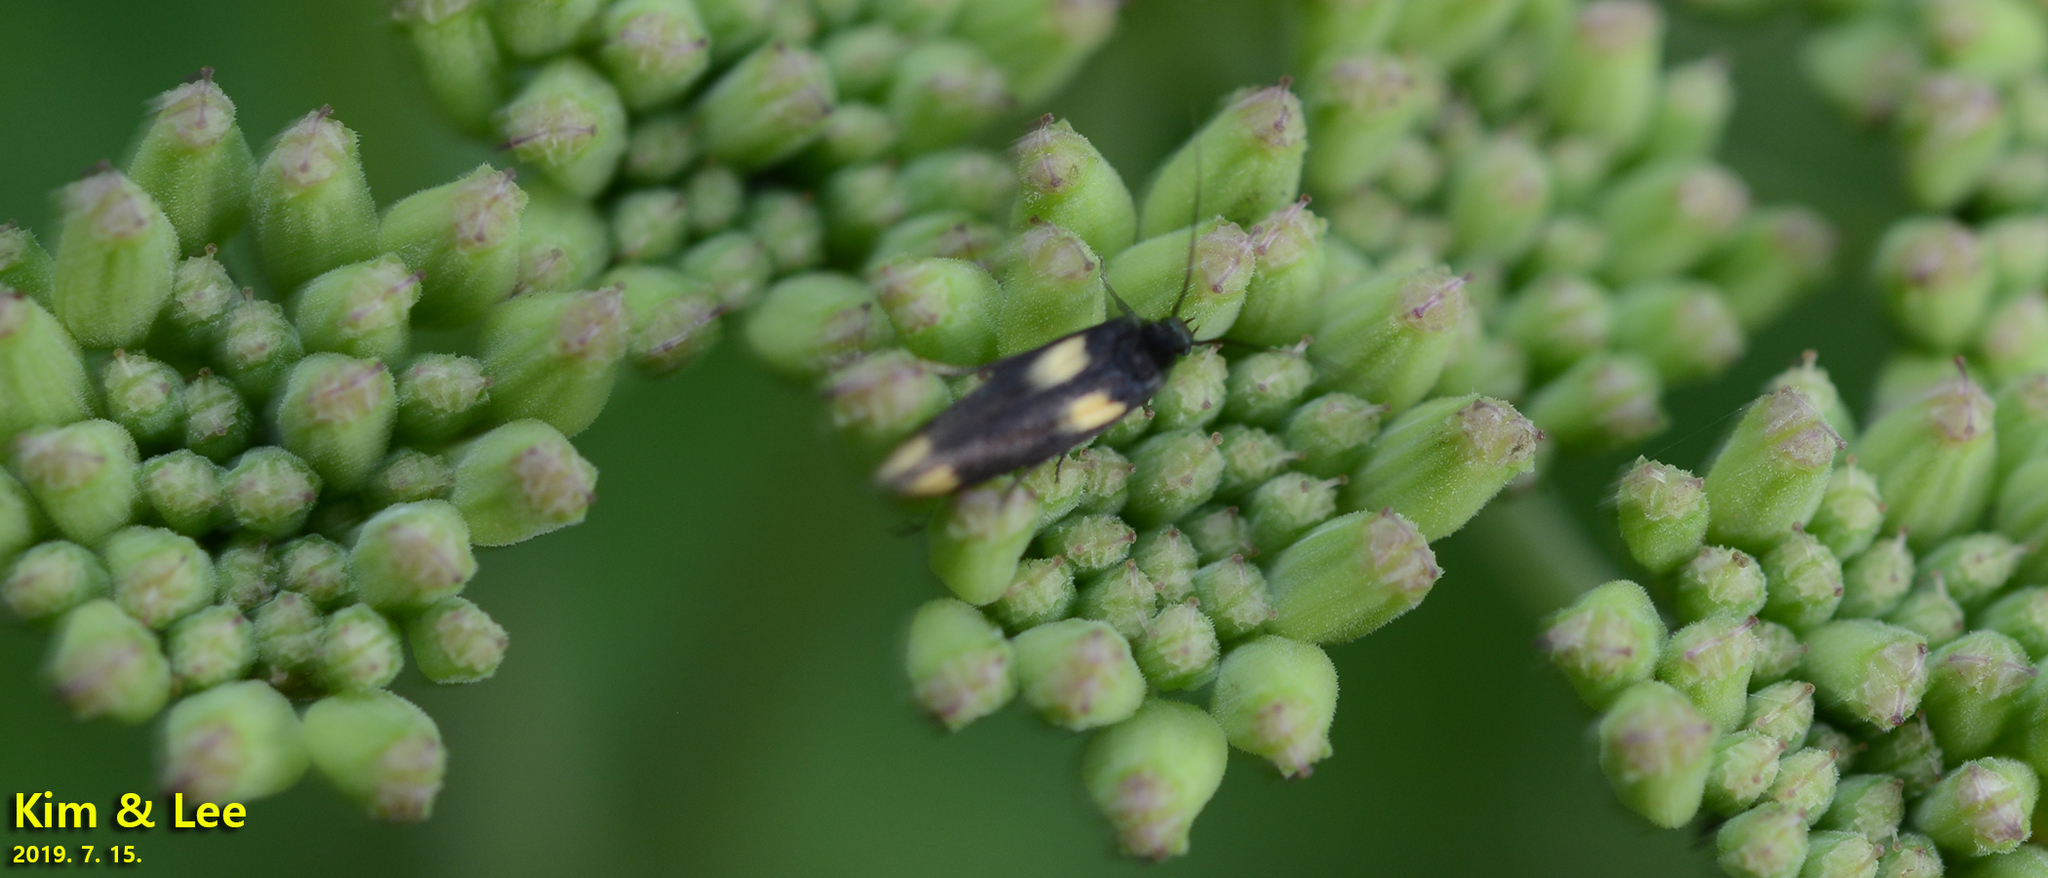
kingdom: Animalia
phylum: Arthropoda
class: Insecta
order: Lepidoptera
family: Scythrididae
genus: Scythris
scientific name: Scythris sinensis
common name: Kentish owlet
